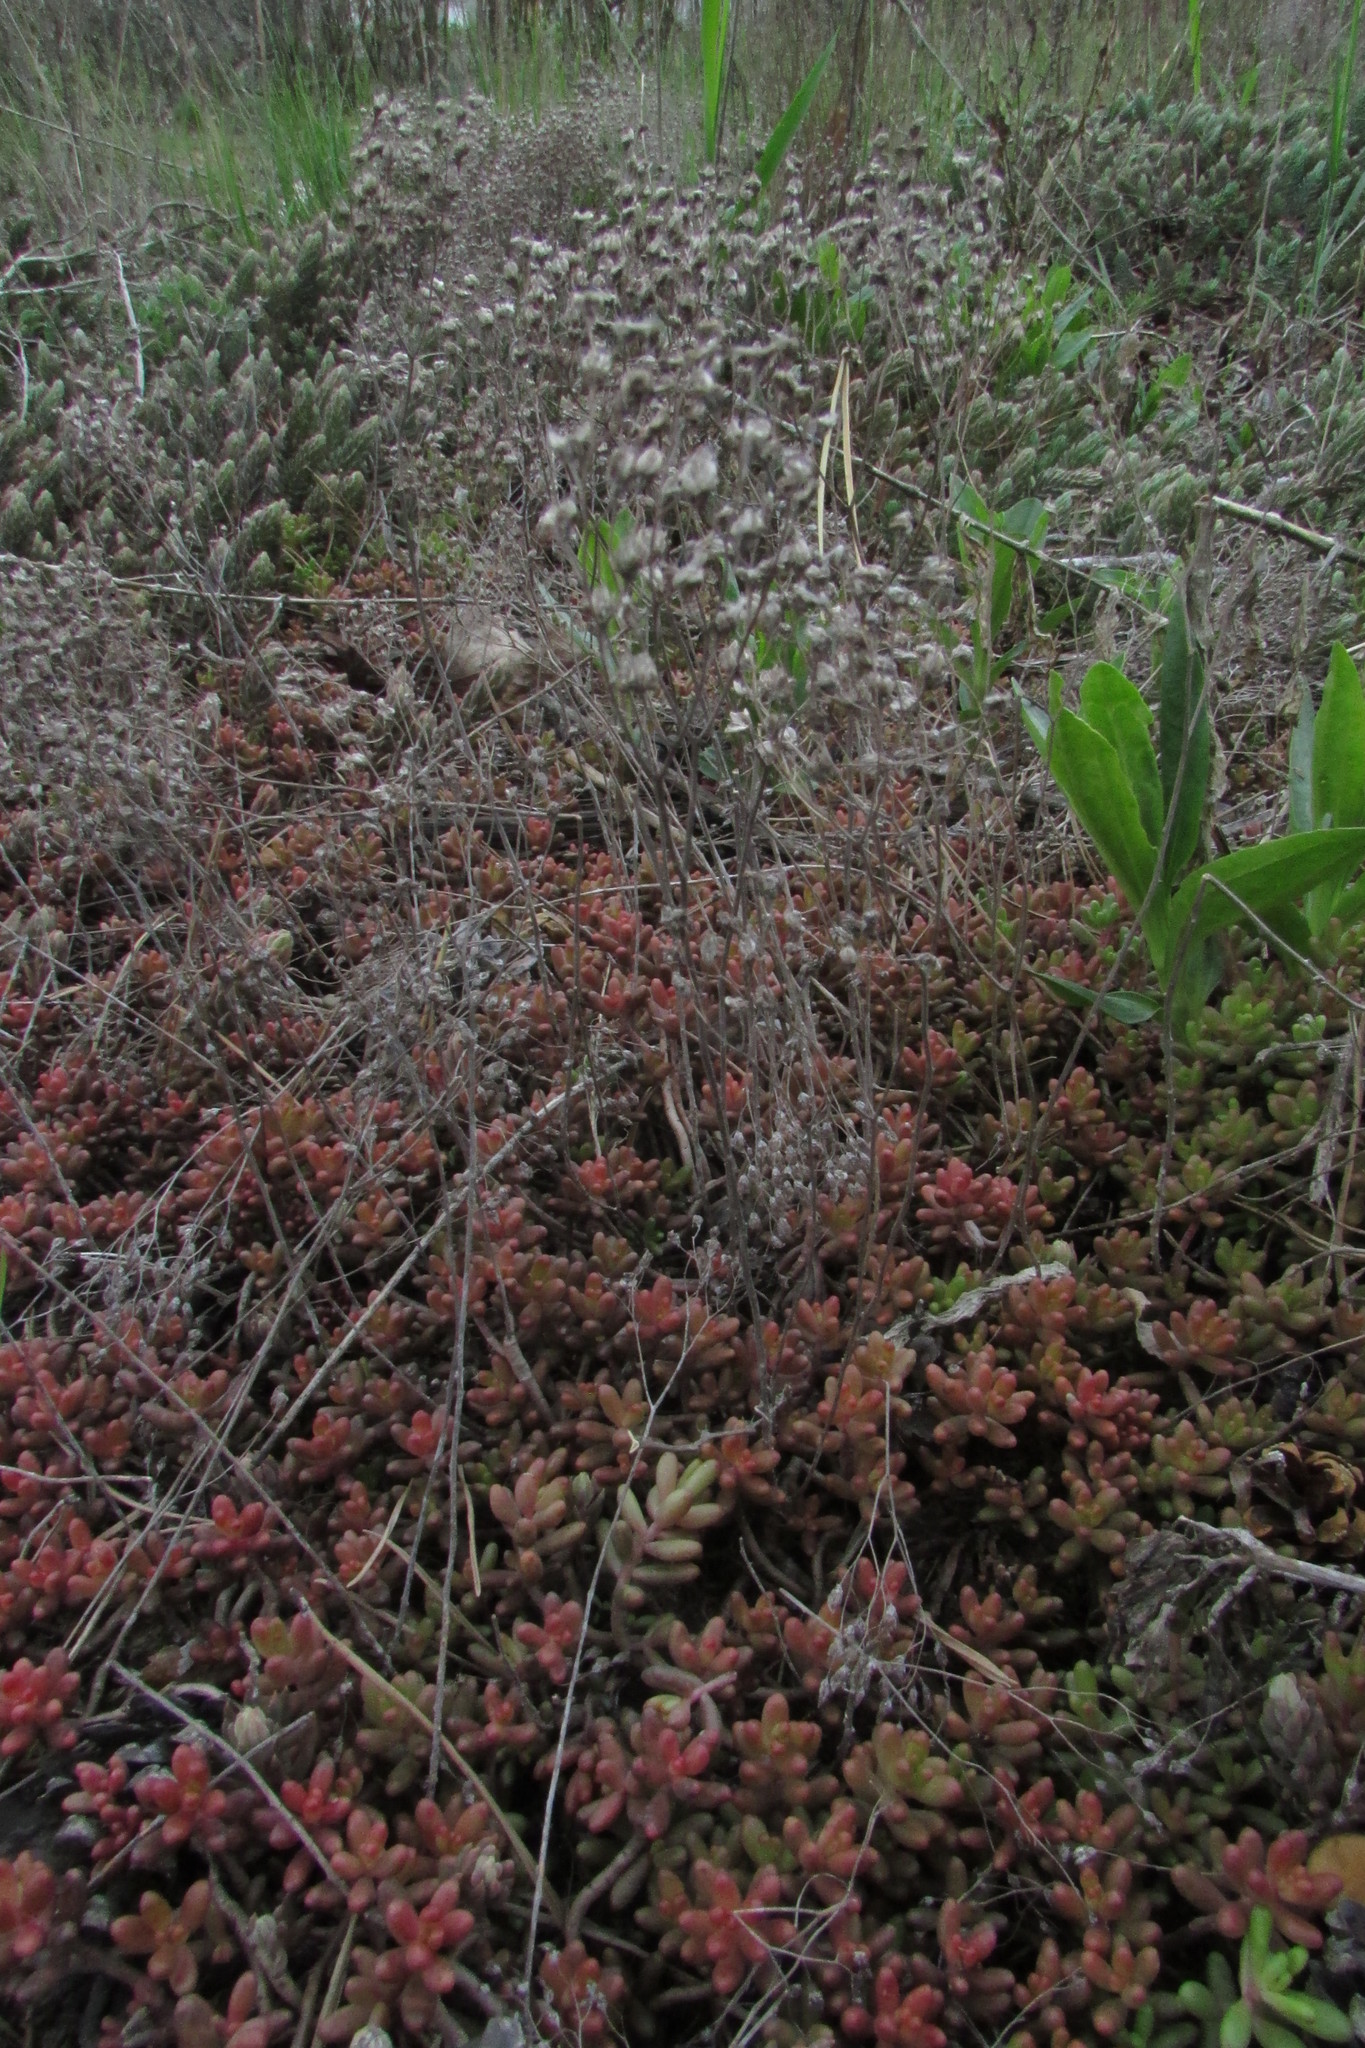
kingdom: Plantae
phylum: Tracheophyta
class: Magnoliopsida
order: Saxifragales
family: Crassulaceae
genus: Sedum
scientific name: Sedum album
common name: White stonecrop
